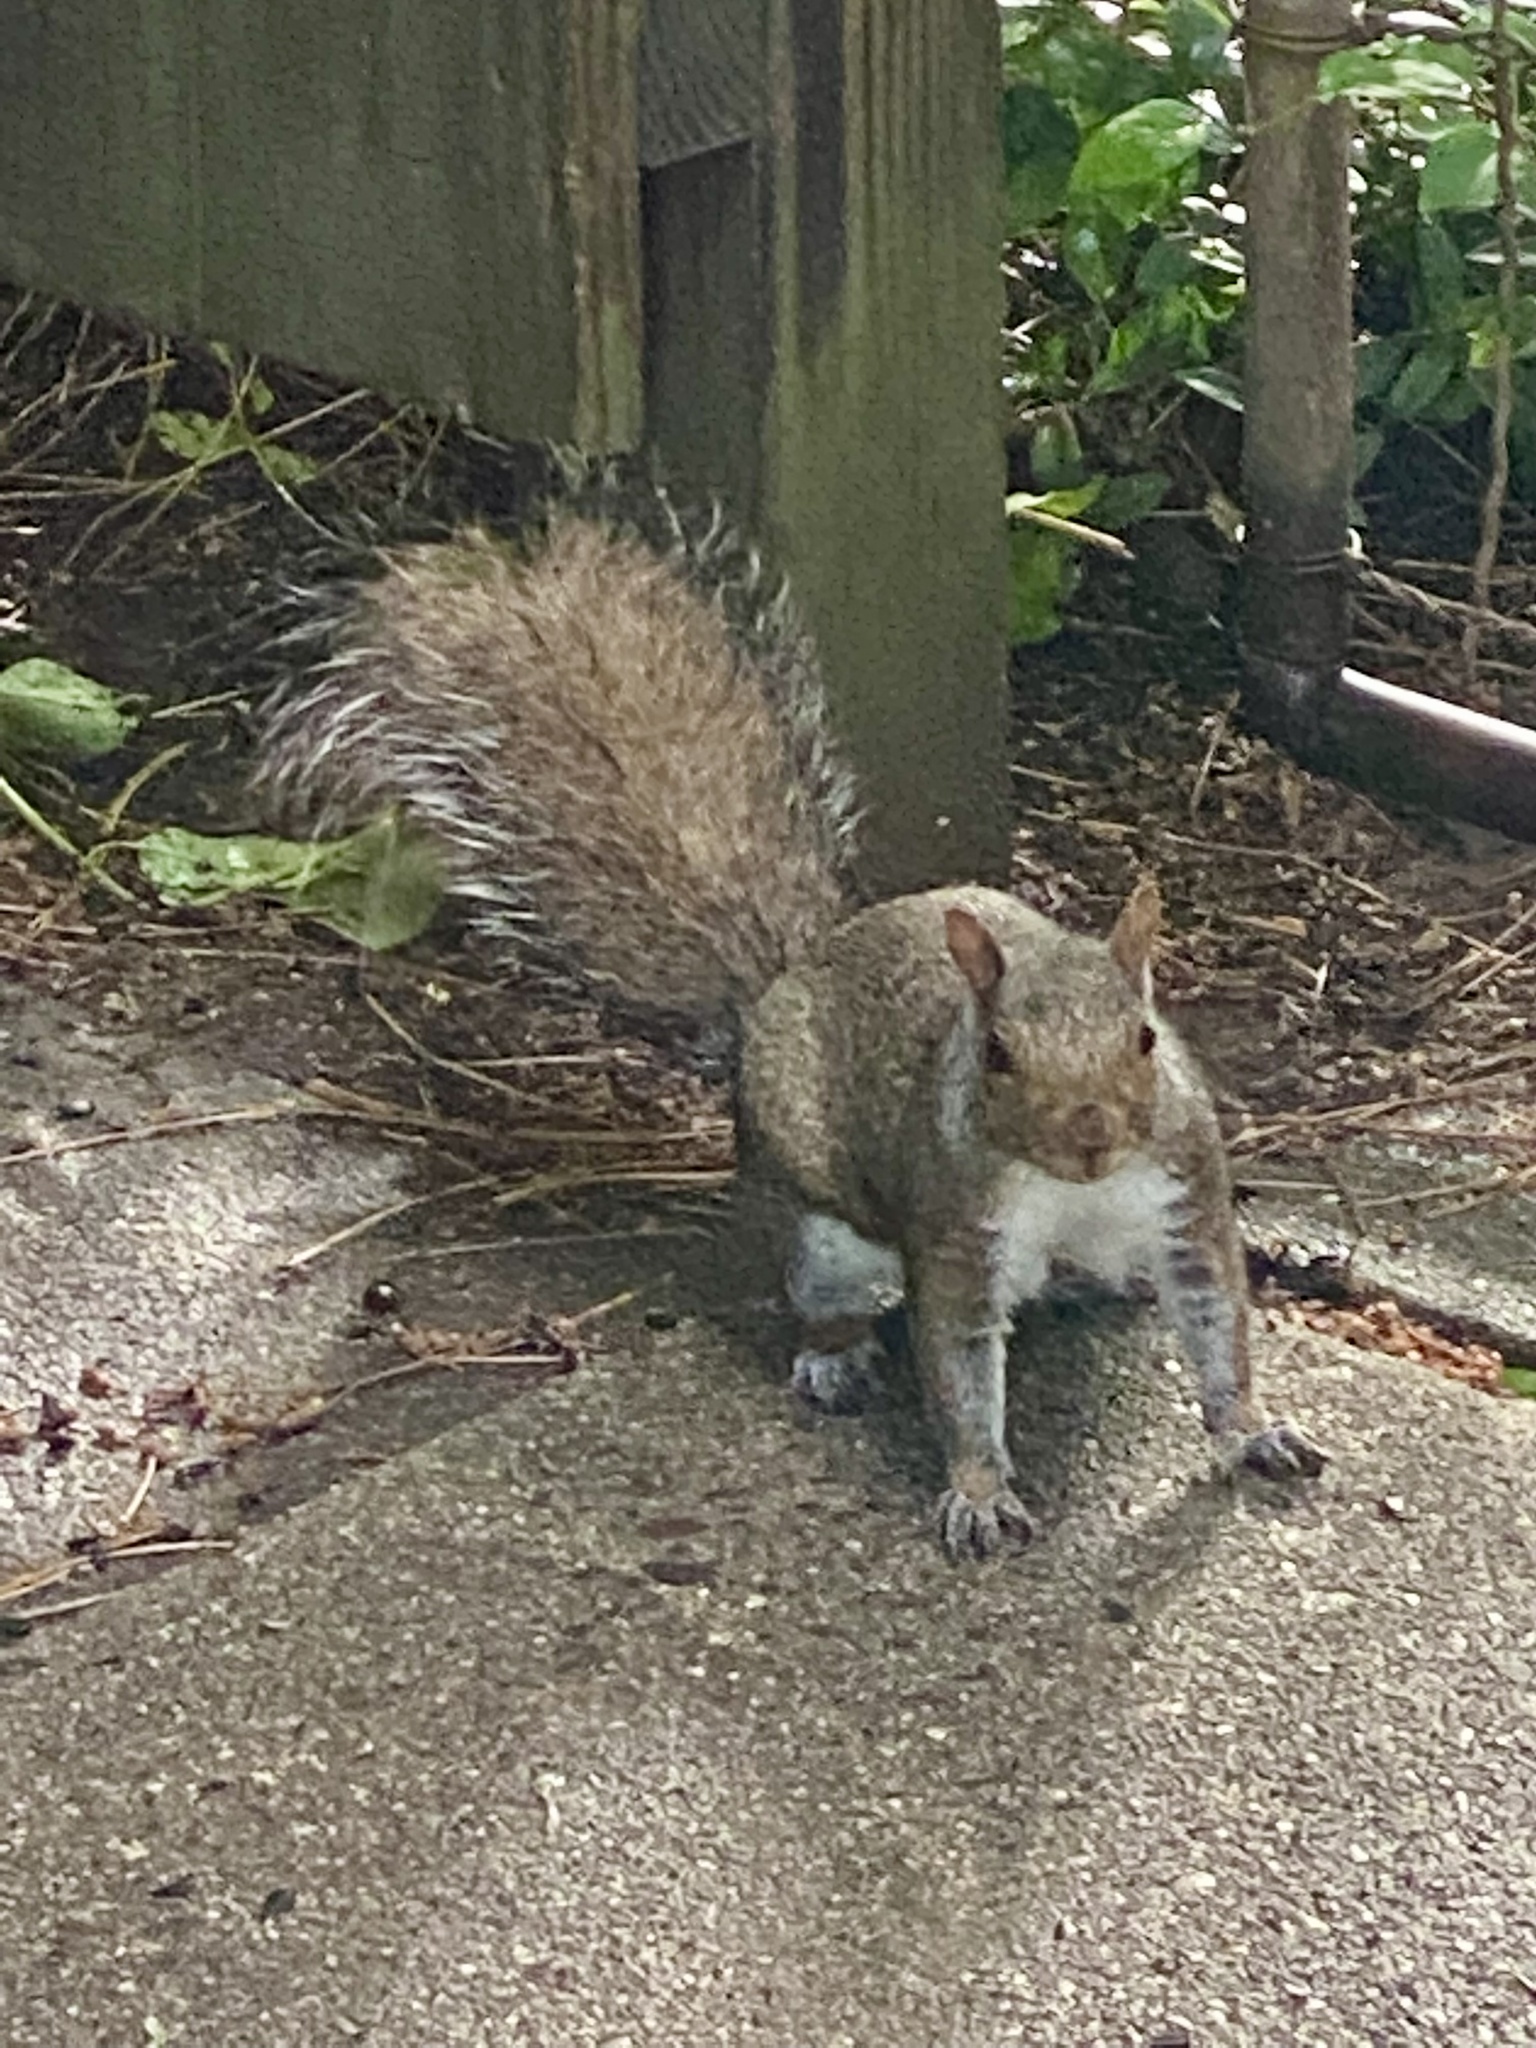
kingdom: Animalia
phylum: Chordata
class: Mammalia
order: Rodentia
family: Sciuridae
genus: Sciurus
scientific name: Sciurus carolinensis
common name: Eastern gray squirrel
